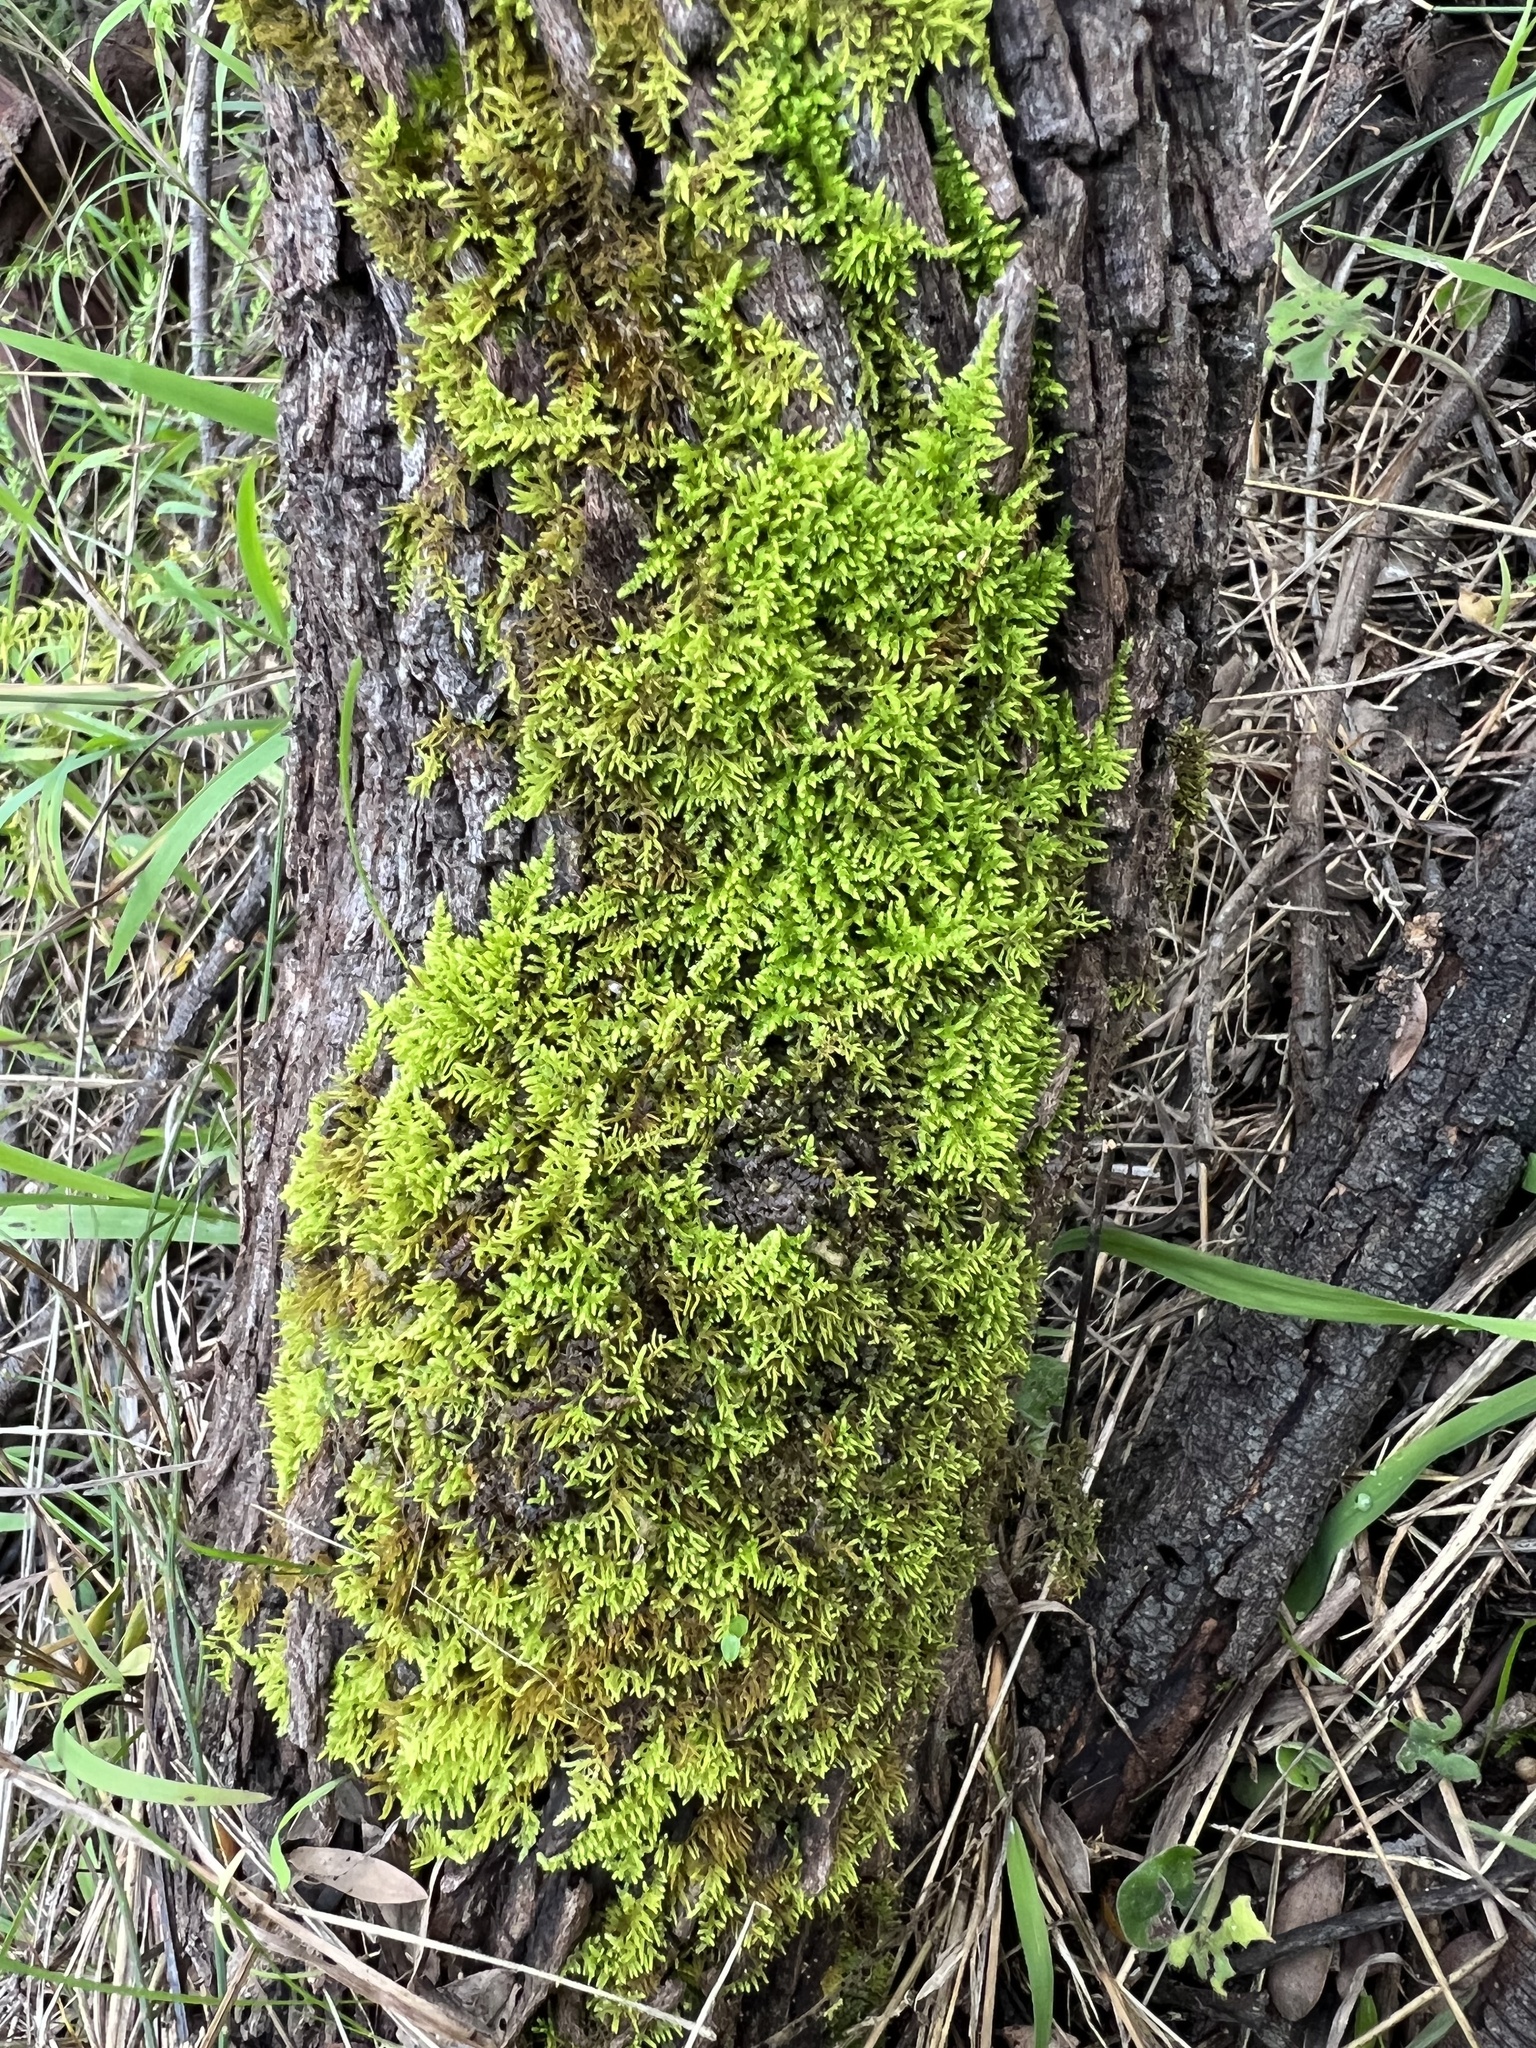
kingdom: Plantae
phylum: Bryophyta
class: Bryopsida
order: Hypnales
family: Thuidiaceae
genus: Thuidiopsis
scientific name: Thuidiopsis sparsa
